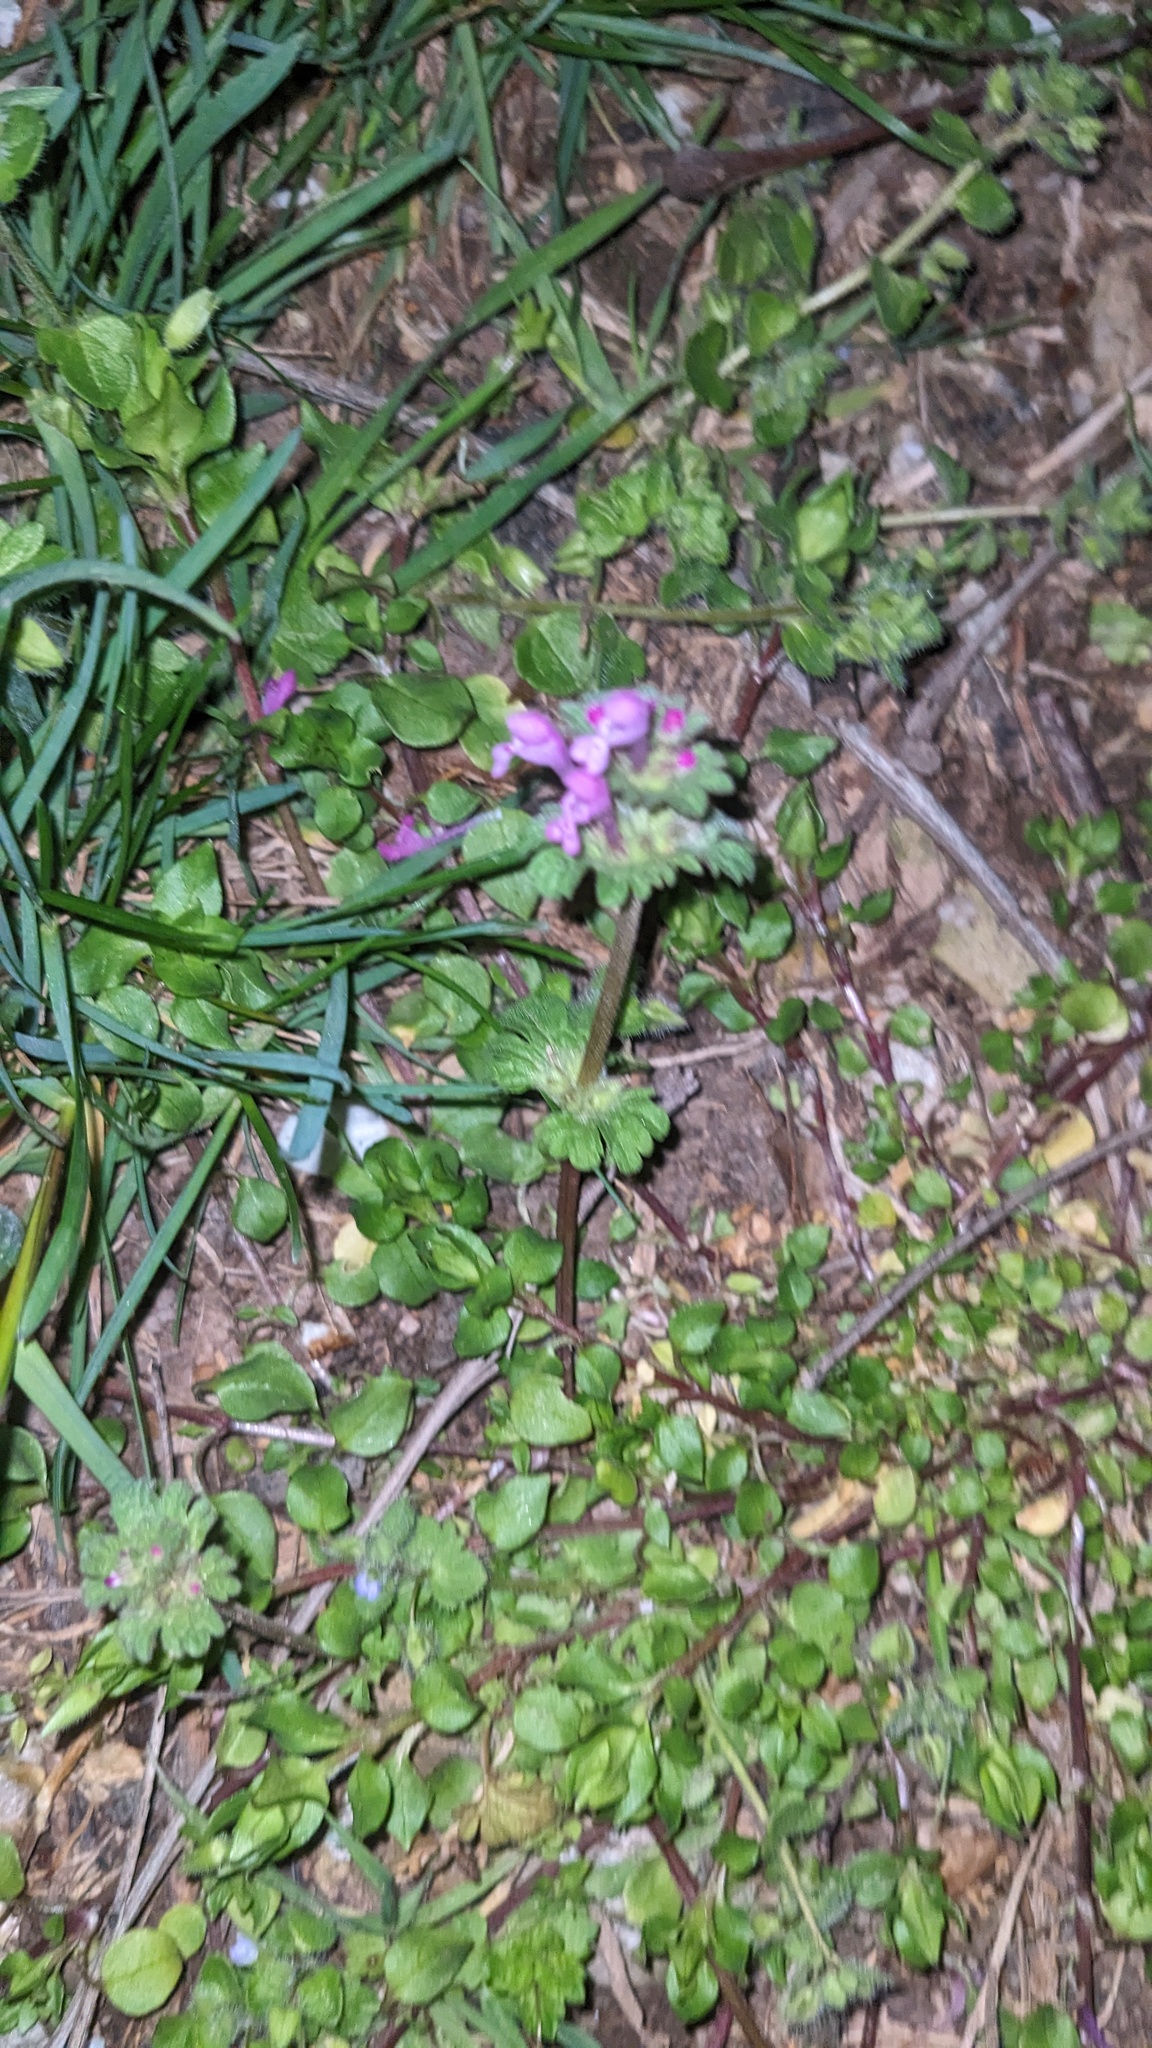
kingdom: Plantae
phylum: Tracheophyta
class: Magnoliopsida
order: Lamiales
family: Lamiaceae
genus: Lamium
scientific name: Lamium amplexicaule
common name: Henbit dead-nettle
